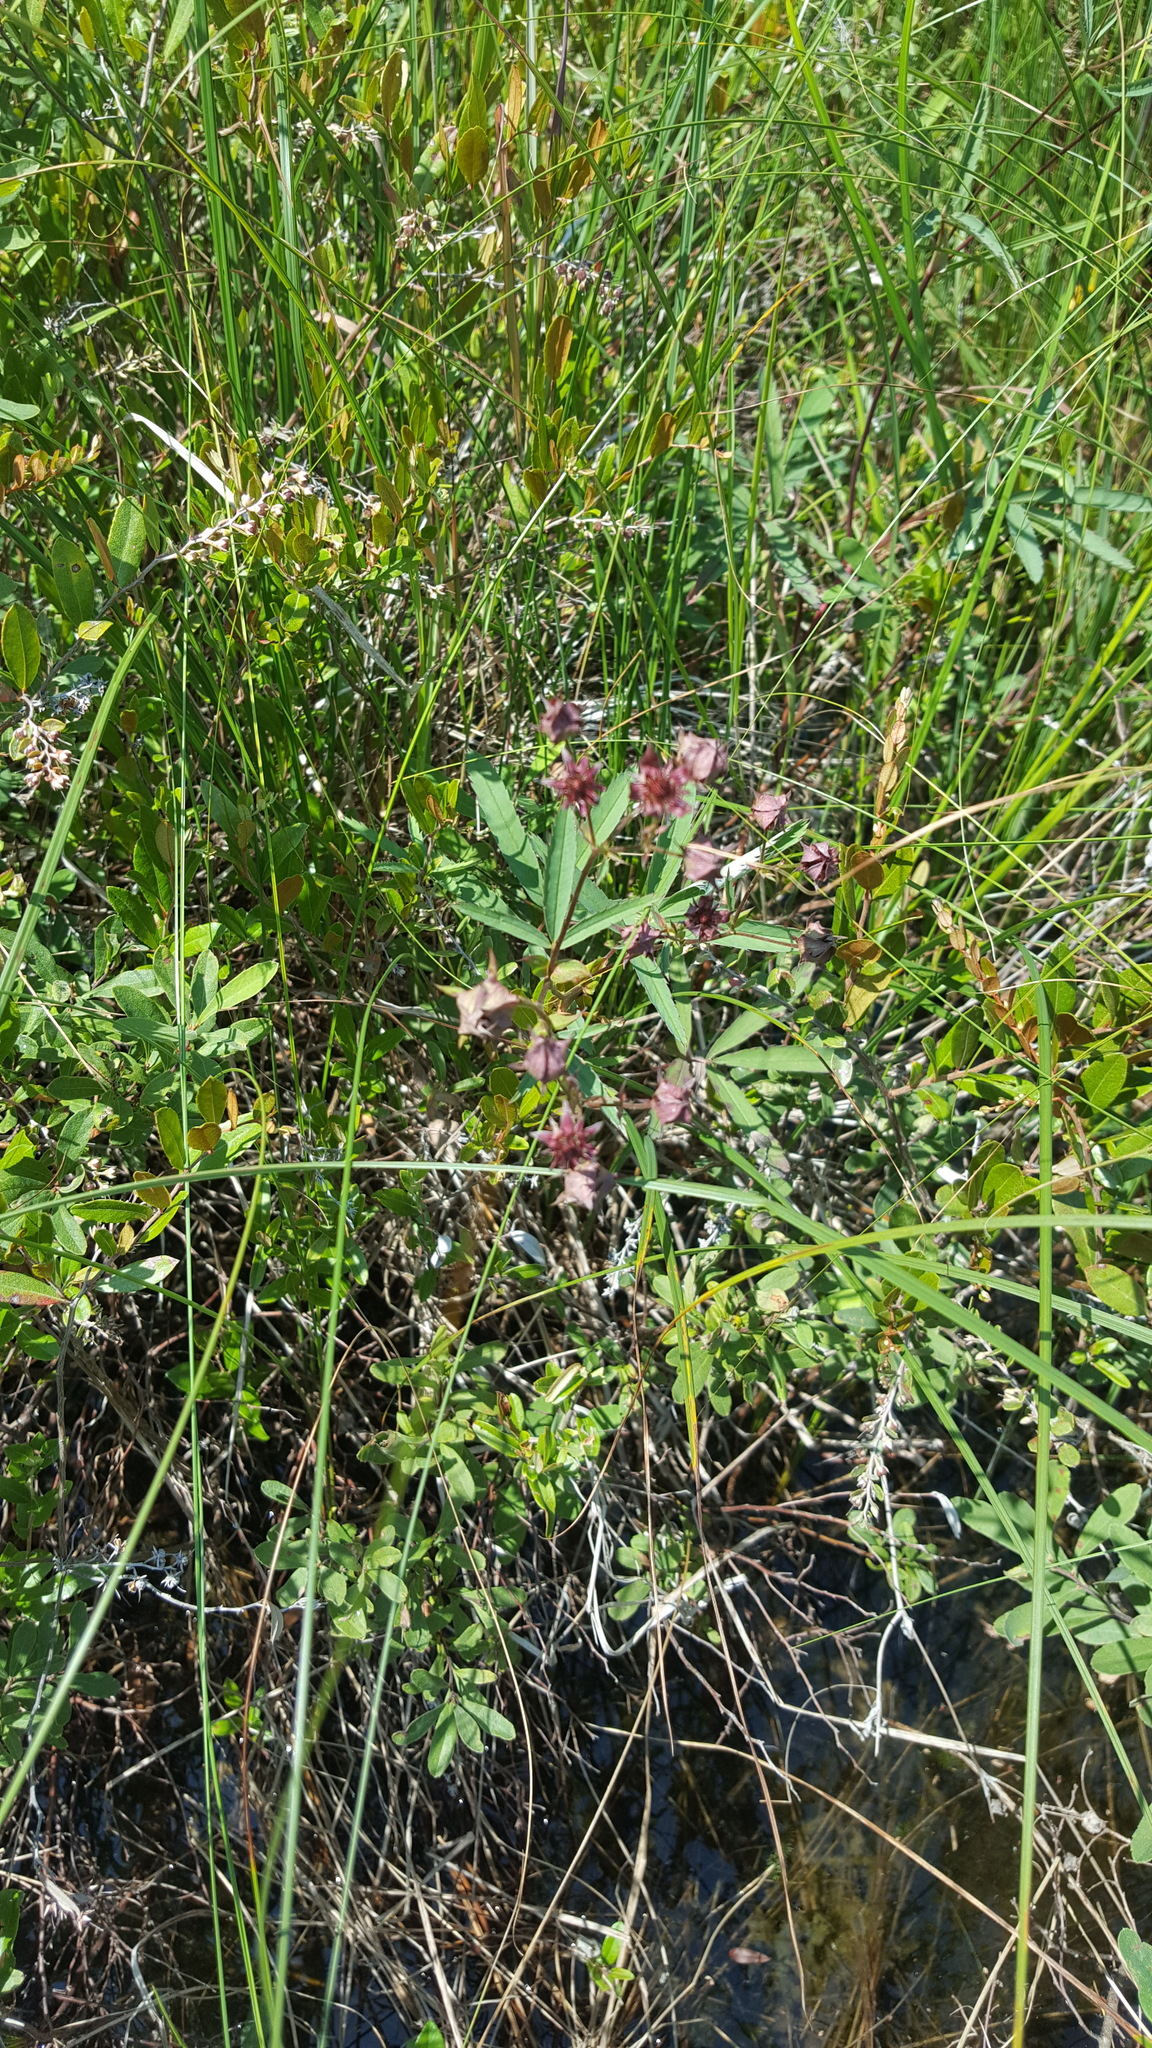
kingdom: Plantae
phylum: Tracheophyta
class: Magnoliopsida
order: Rosales
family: Rosaceae
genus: Comarum
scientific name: Comarum palustre
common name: Marsh cinquefoil
